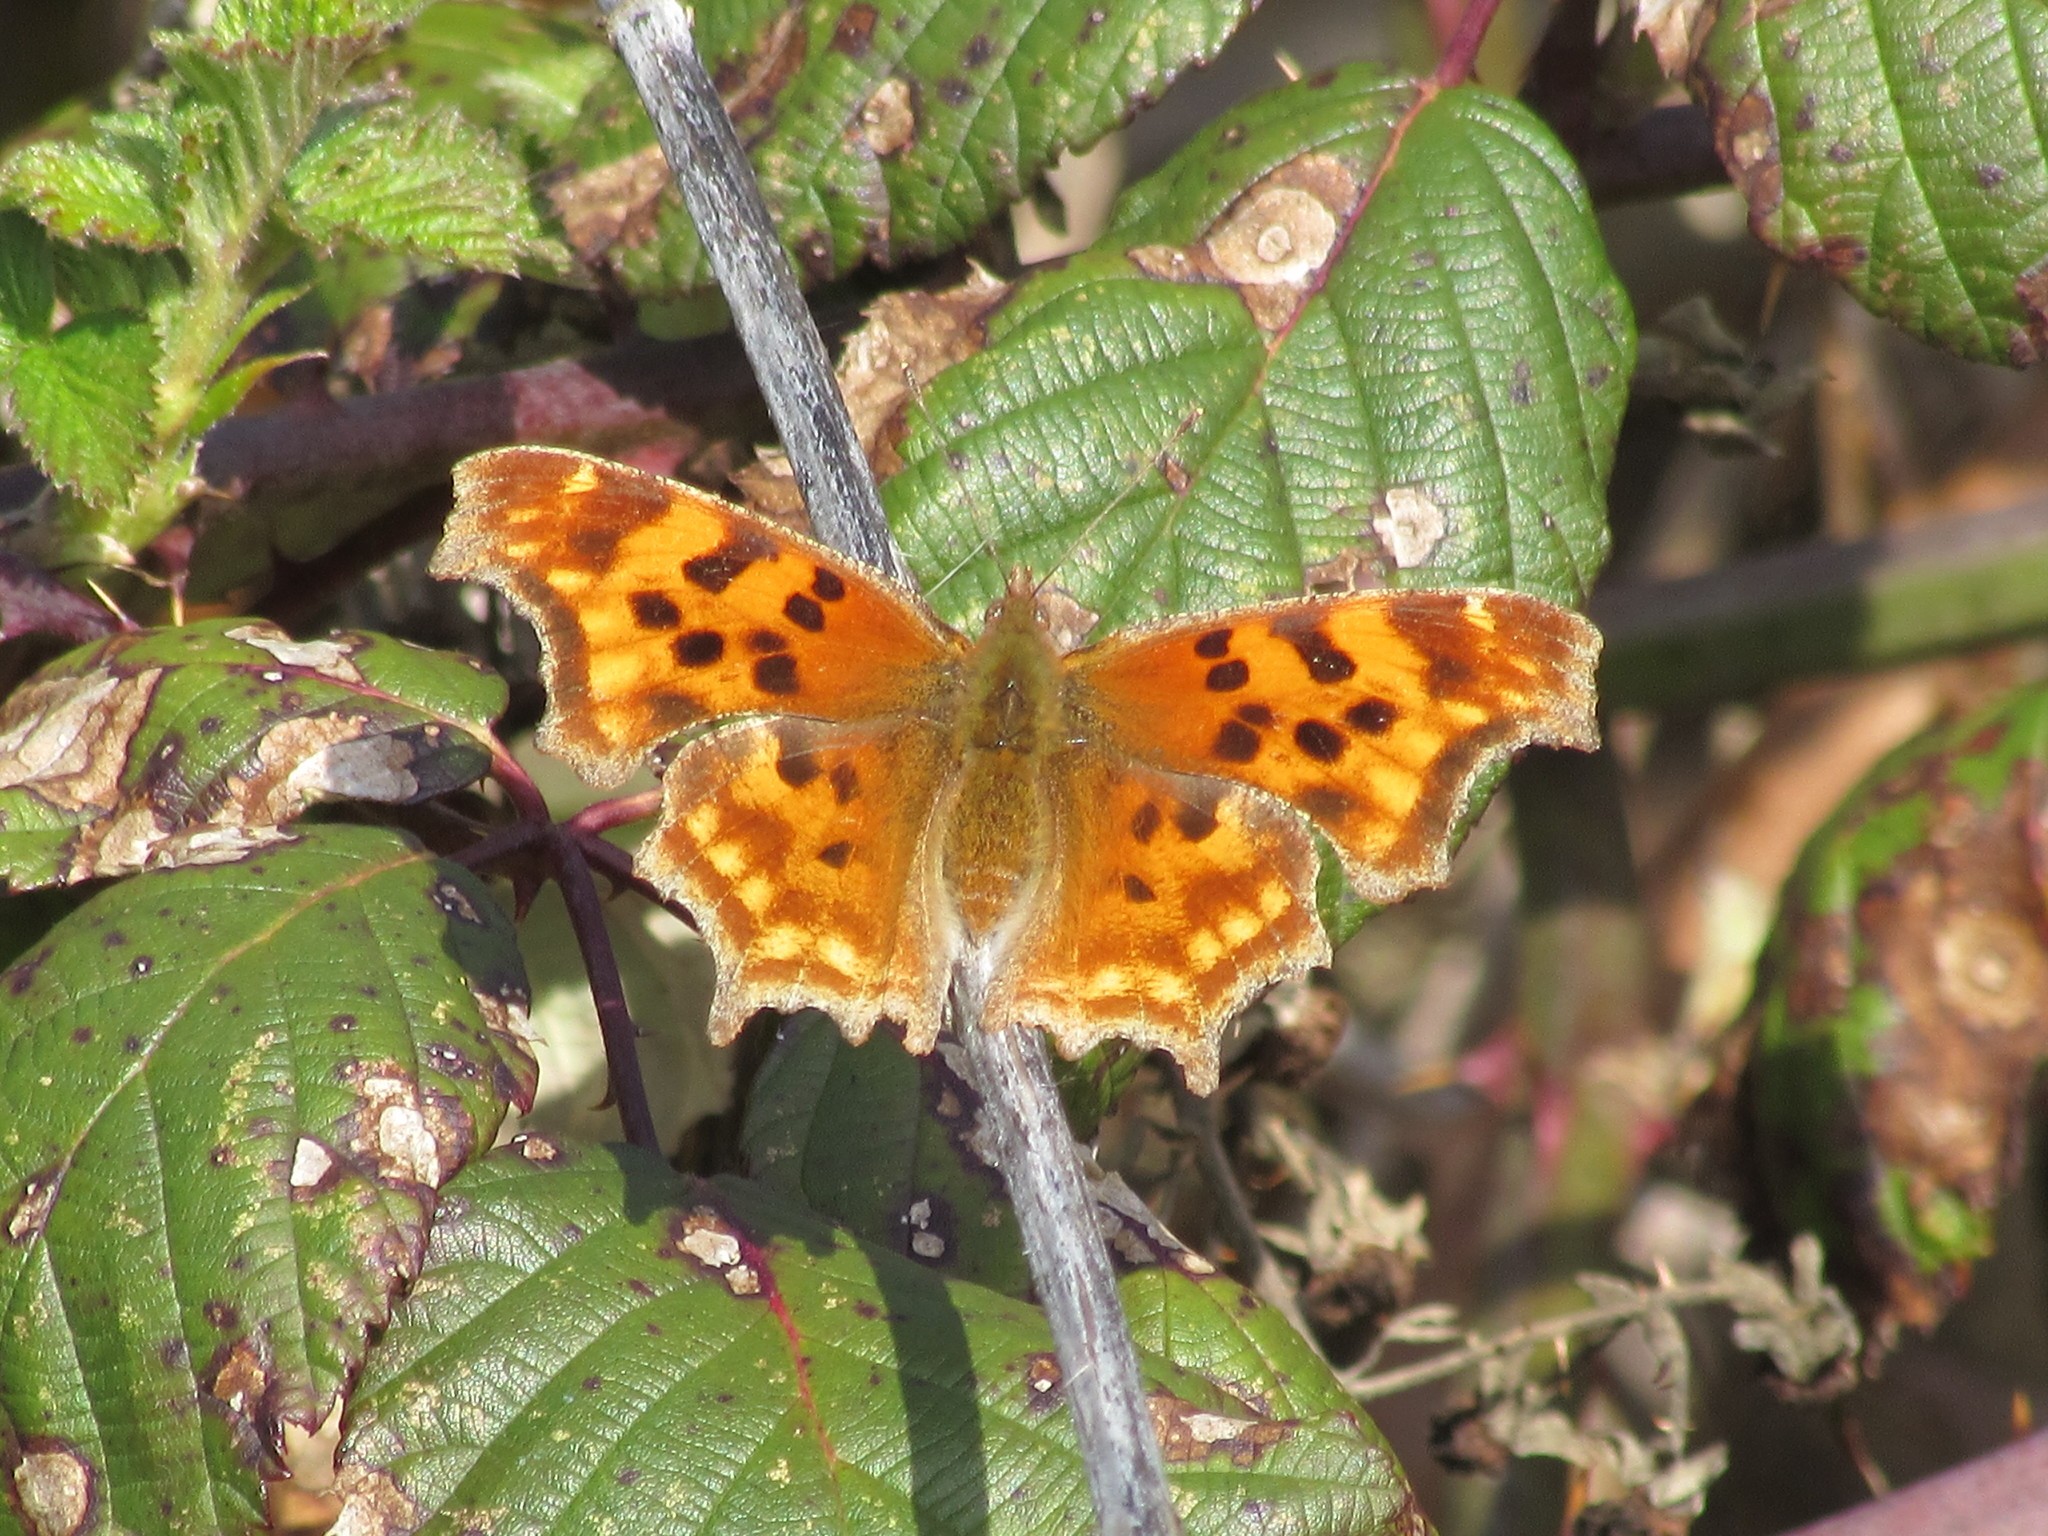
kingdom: Animalia
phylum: Arthropoda
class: Insecta
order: Lepidoptera
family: Nymphalidae
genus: Polygonia
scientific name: Polygonia satyrus
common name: Satyr angle wing
